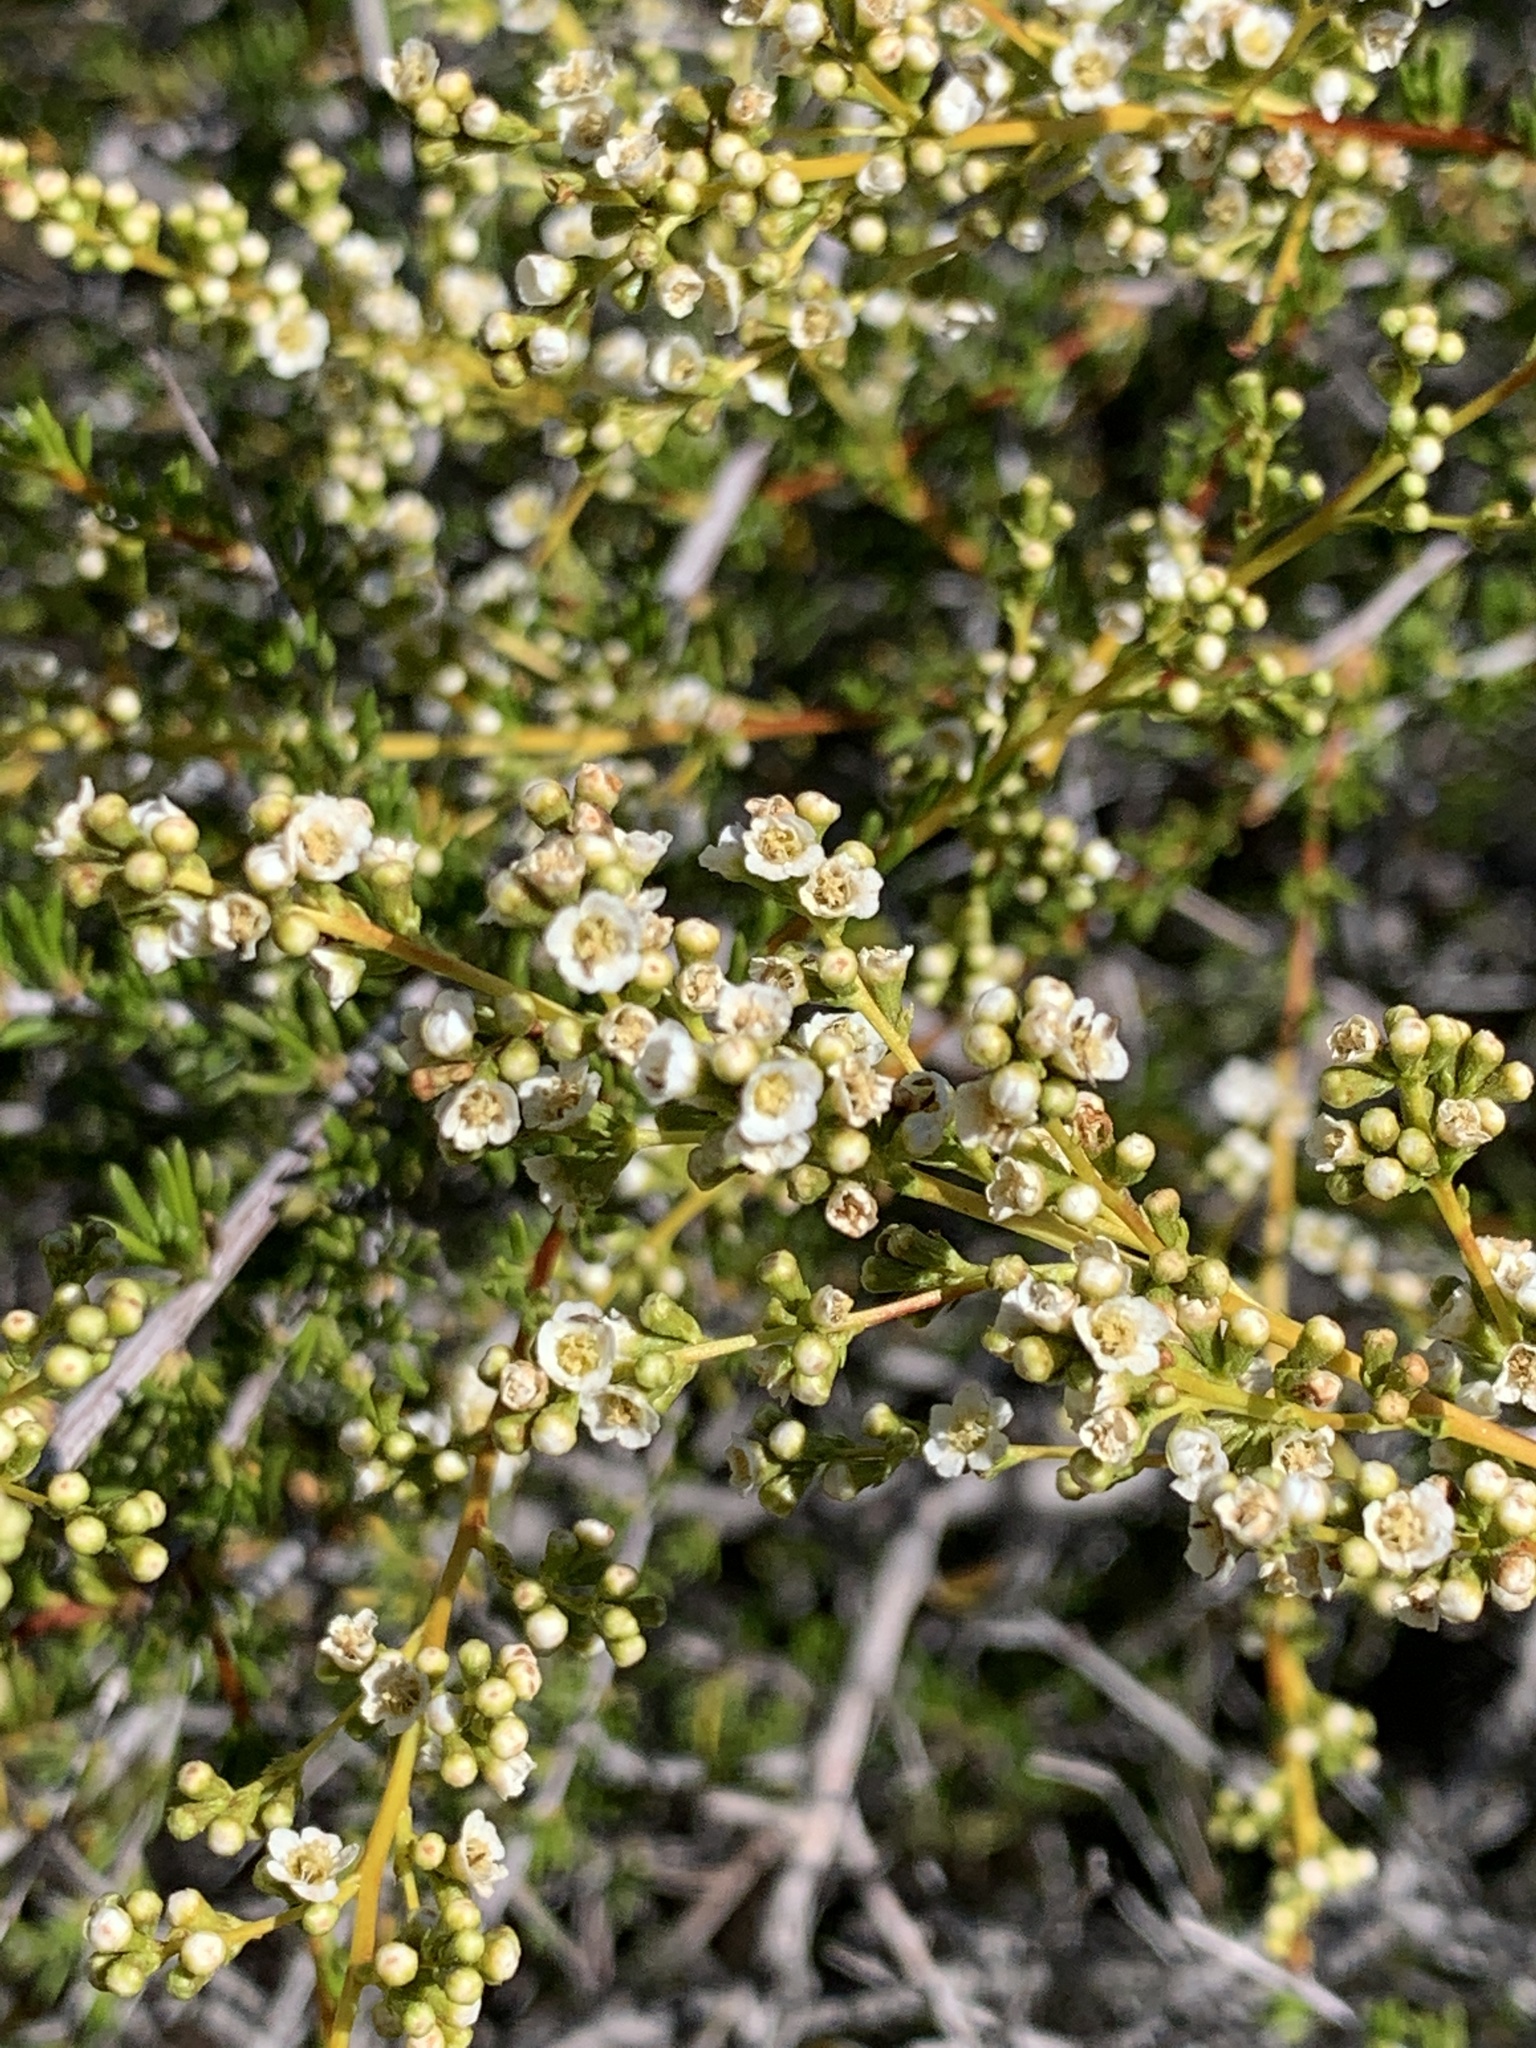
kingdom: Plantae
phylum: Tracheophyta
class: Magnoliopsida
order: Rosales
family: Rosaceae
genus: Adenostoma
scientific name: Adenostoma fasciculatum
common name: Chamise
